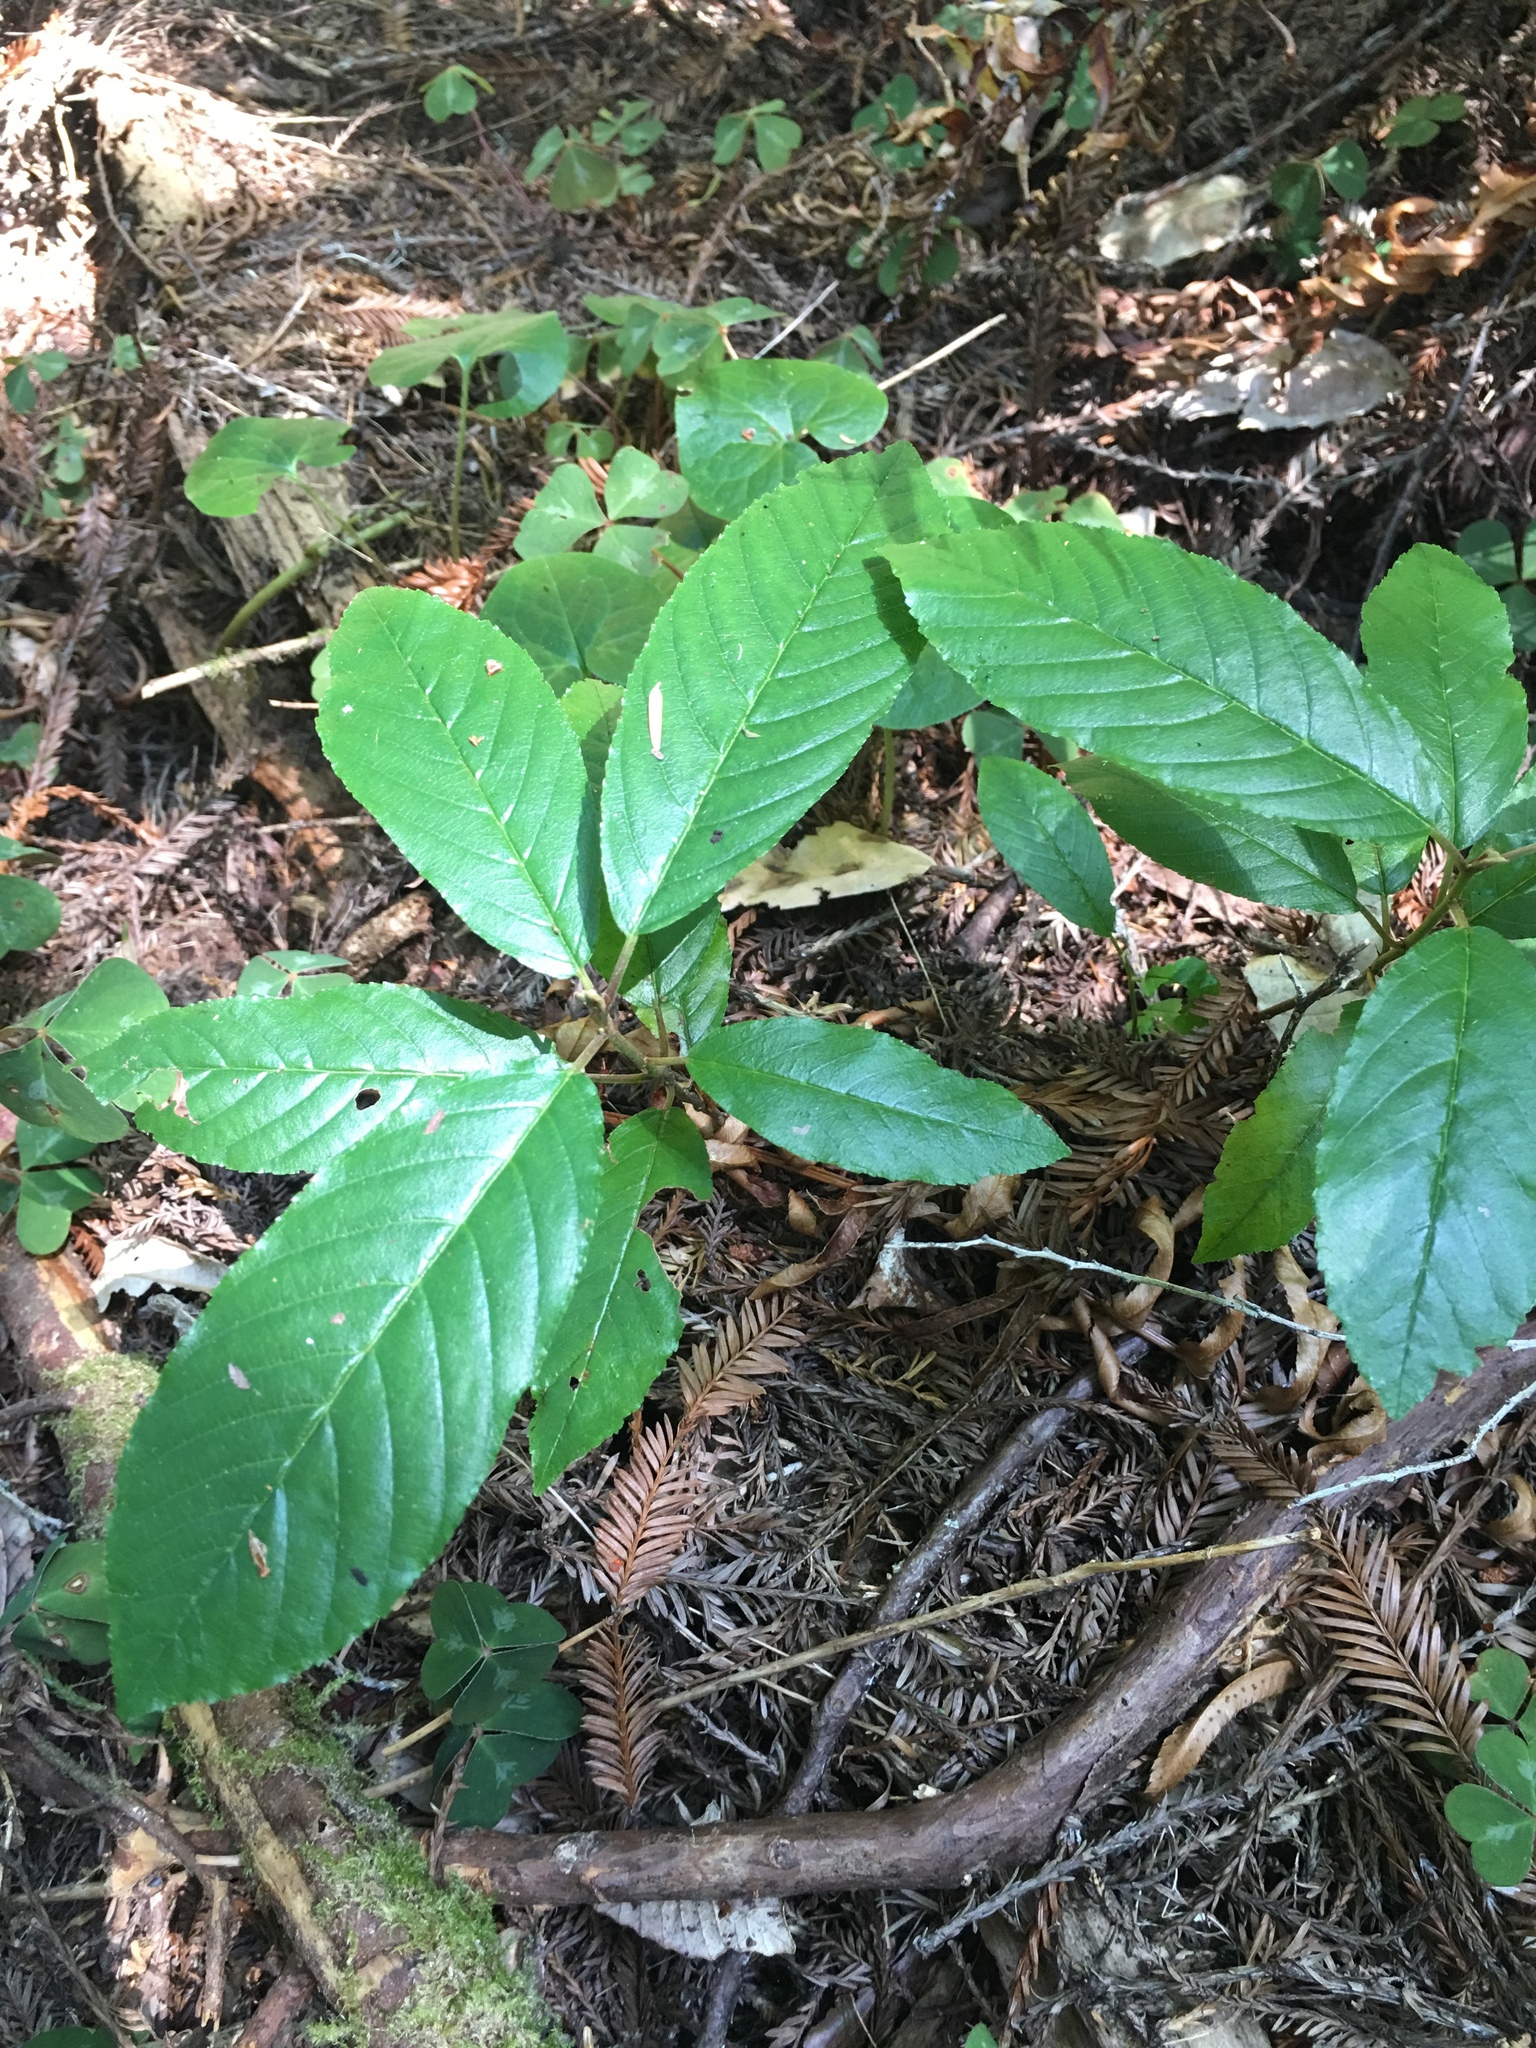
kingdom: Plantae
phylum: Tracheophyta
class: Magnoliopsida
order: Rosales
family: Rhamnaceae
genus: Frangula
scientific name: Frangula purshiana
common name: Cascara buckthorn
